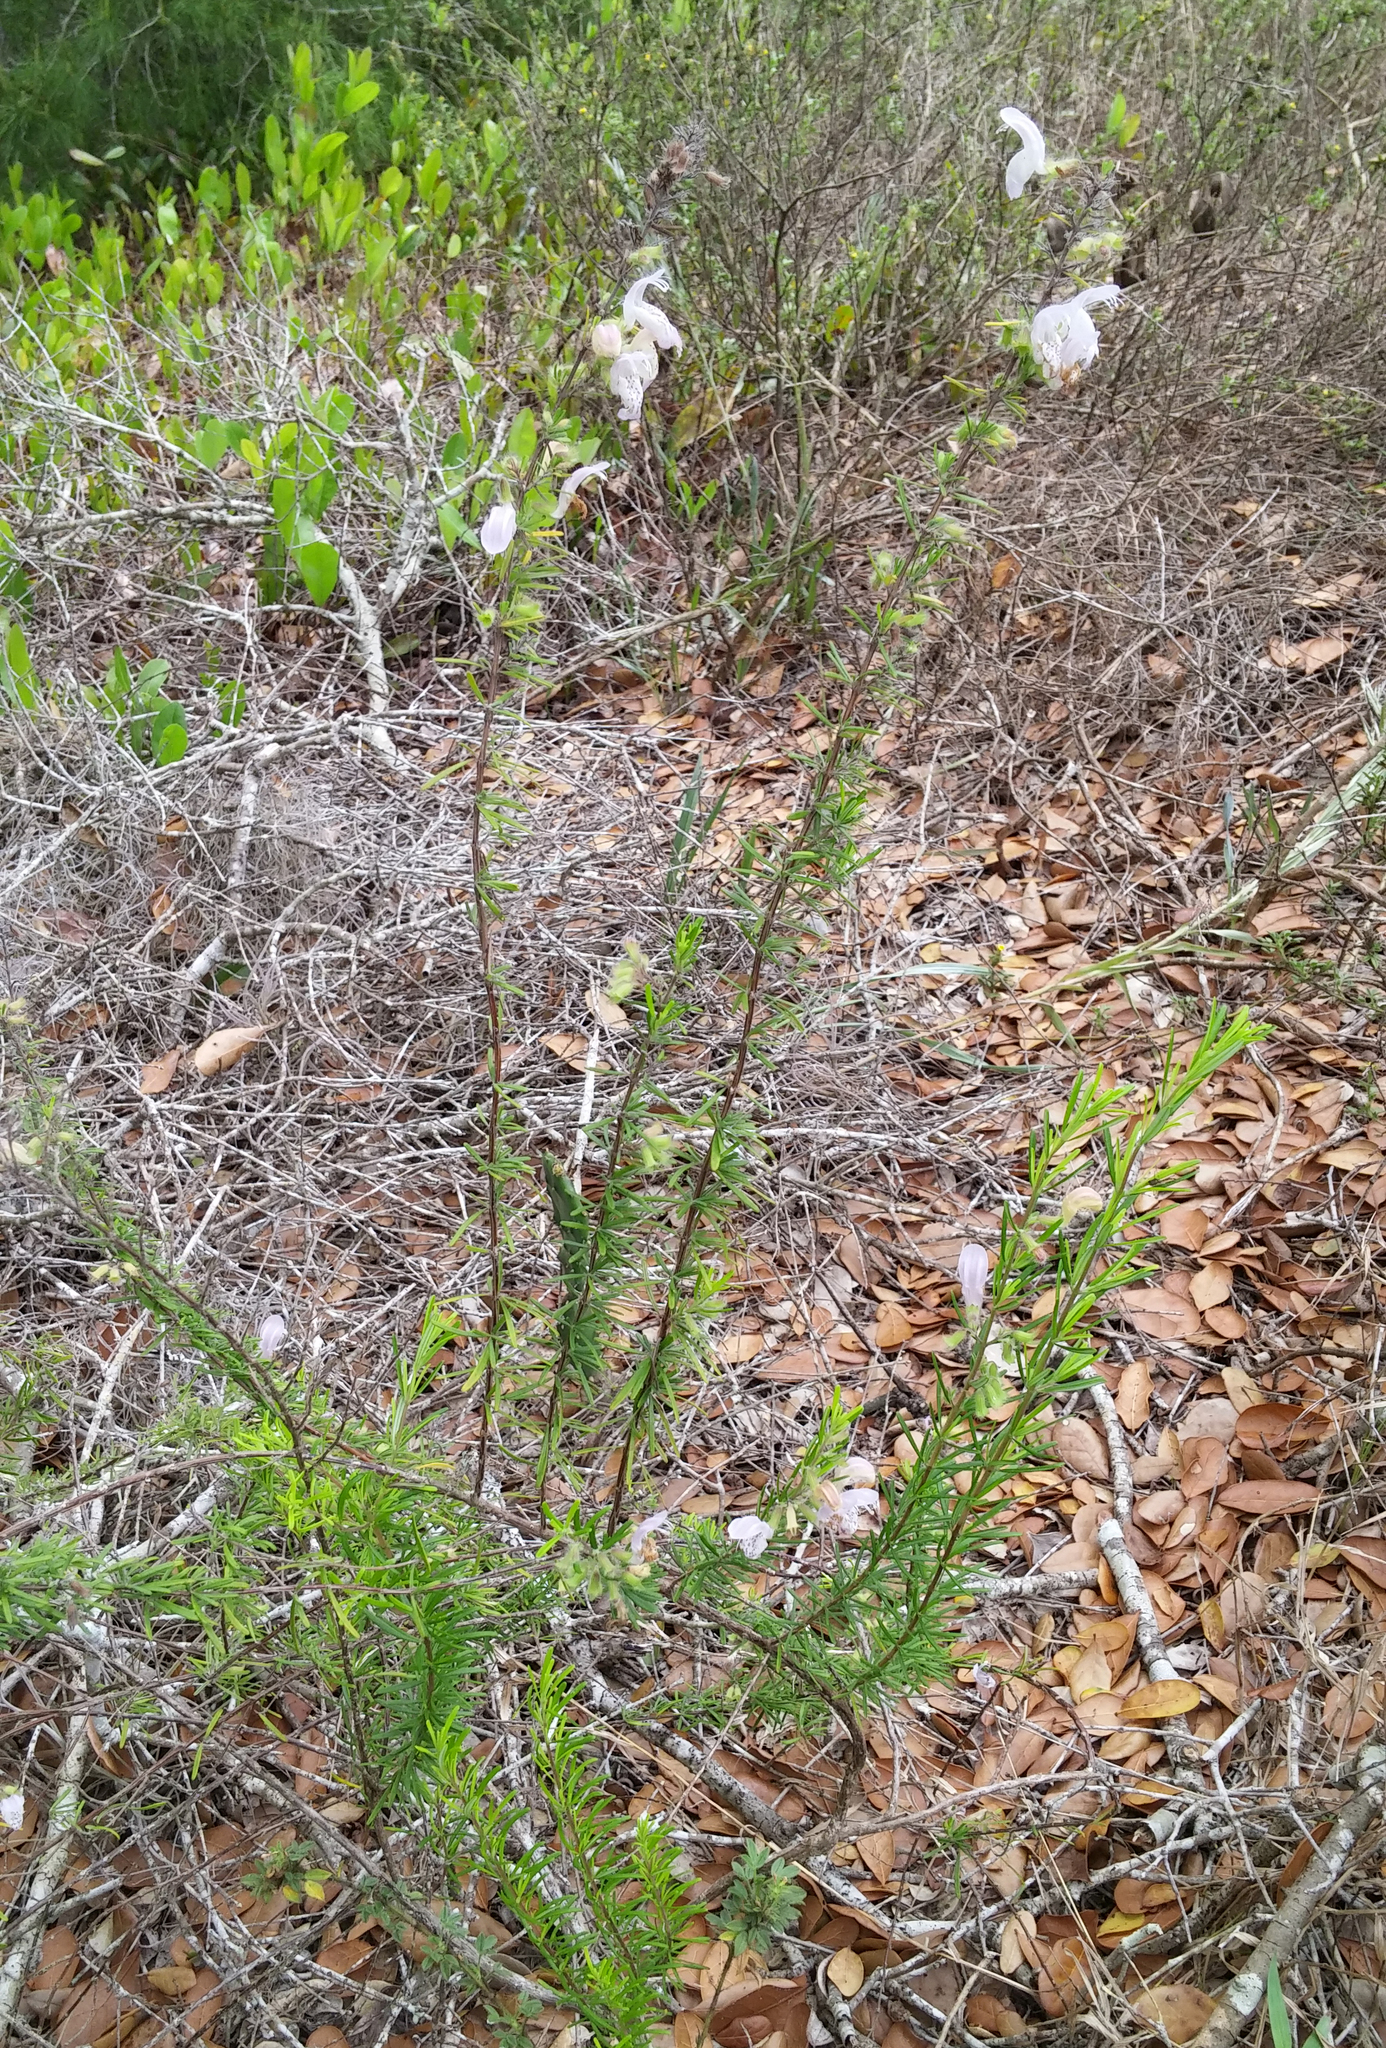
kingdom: Plantae
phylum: Tracheophyta
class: Magnoliopsida
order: Lamiales
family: Lamiaceae
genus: Conradina
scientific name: Conradina grandiflora
